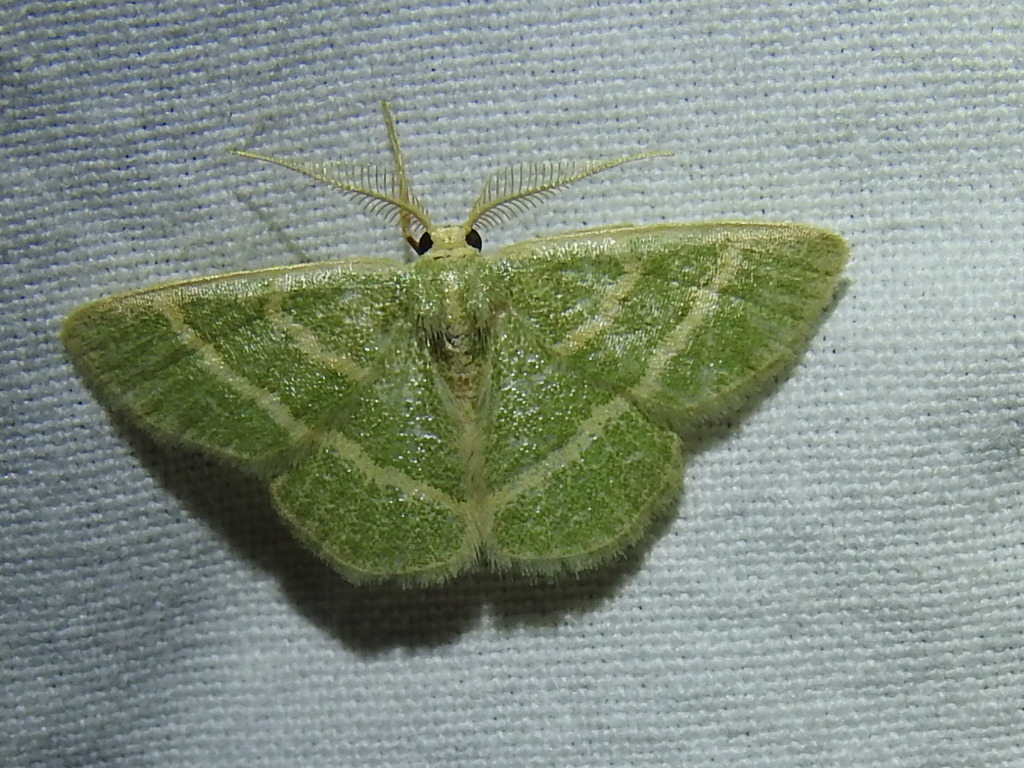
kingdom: Animalia
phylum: Arthropoda
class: Insecta
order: Lepidoptera
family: Geometridae
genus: Chlorochlamys
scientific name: Chlorochlamys chloroleucaria
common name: Blackberry looper
